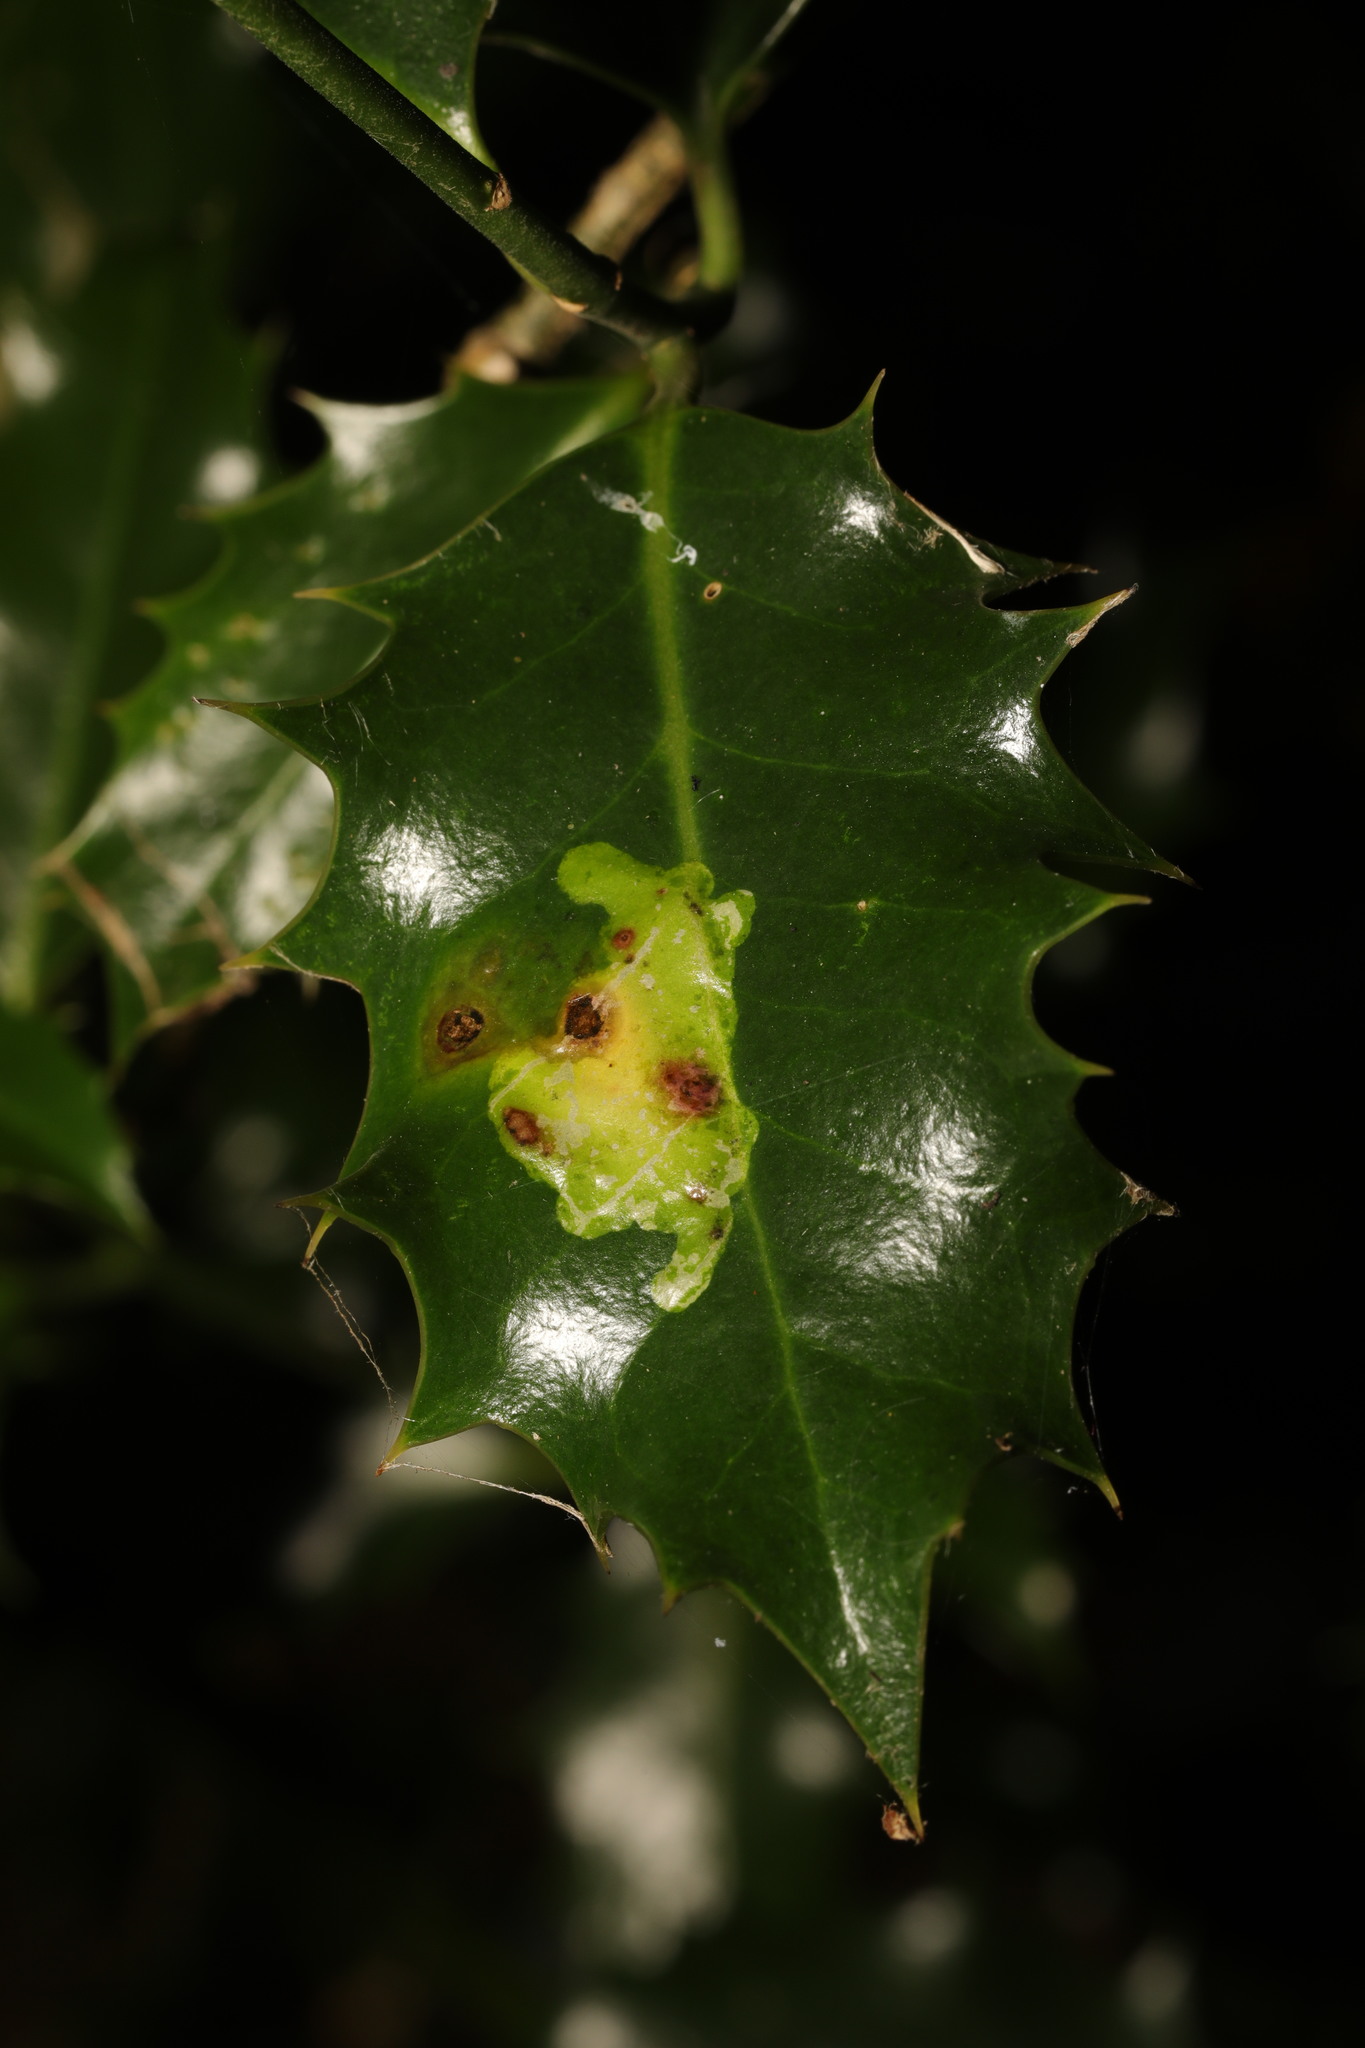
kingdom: Animalia
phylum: Arthropoda
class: Insecta
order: Diptera
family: Agromyzidae
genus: Phytomyza
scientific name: Phytomyza ilicis
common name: Holly leafminer
